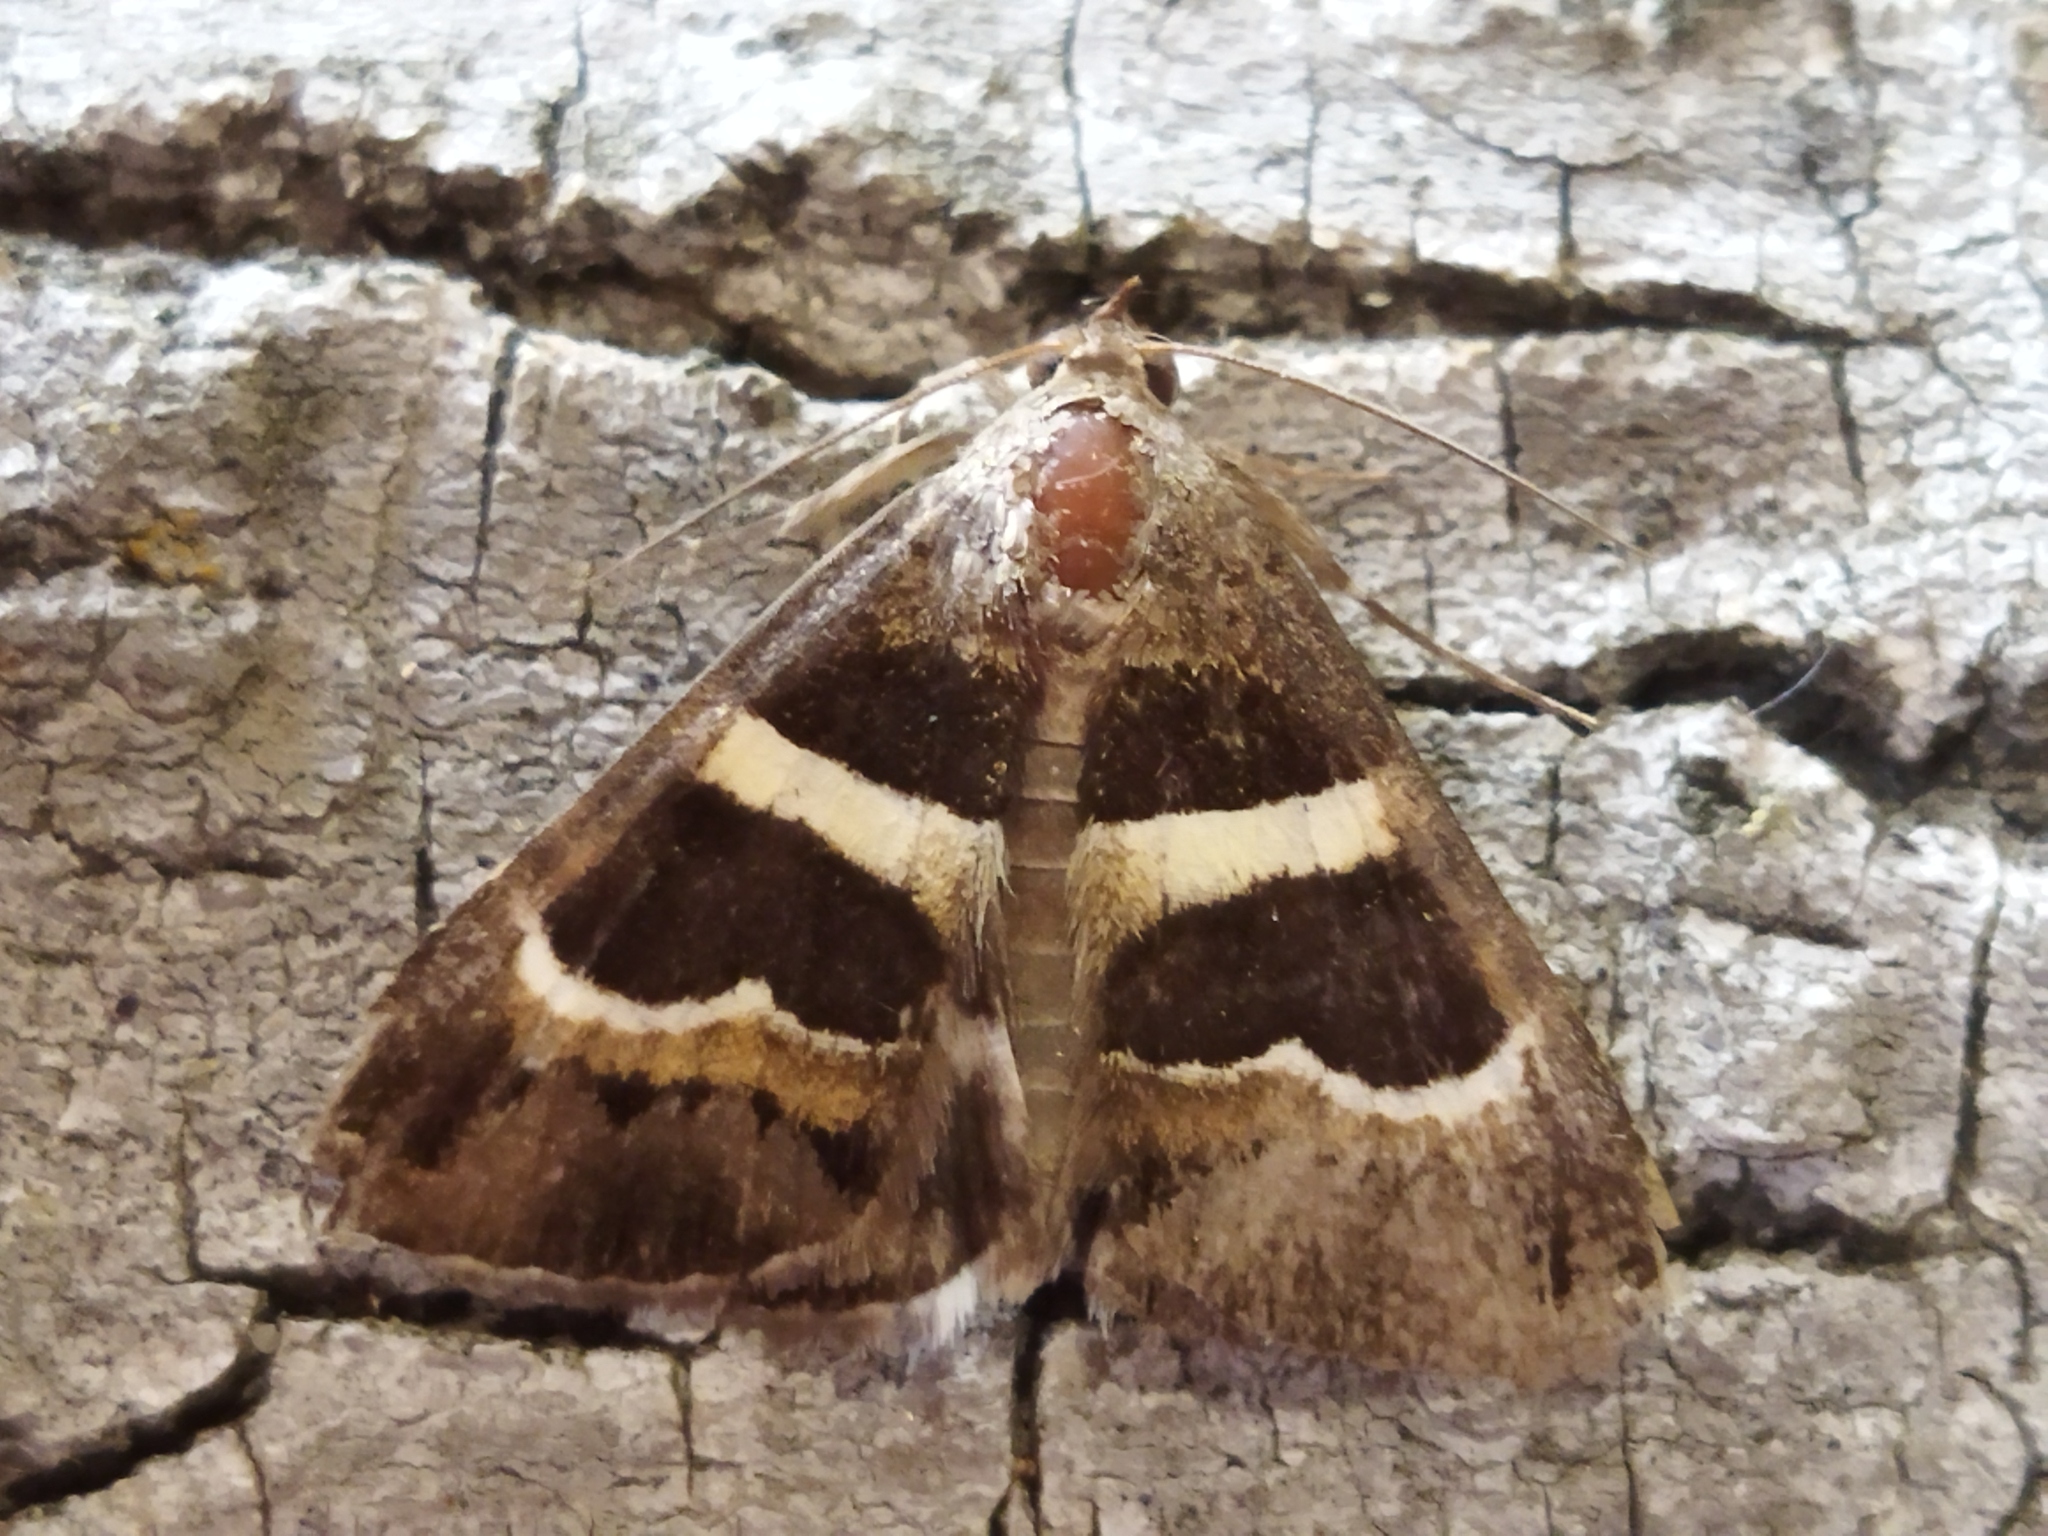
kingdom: Animalia
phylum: Arthropoda
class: Insecta
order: Lepidoptera
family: Erebidae
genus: Grammodes
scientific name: Grammodes stolida
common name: Geometrician
